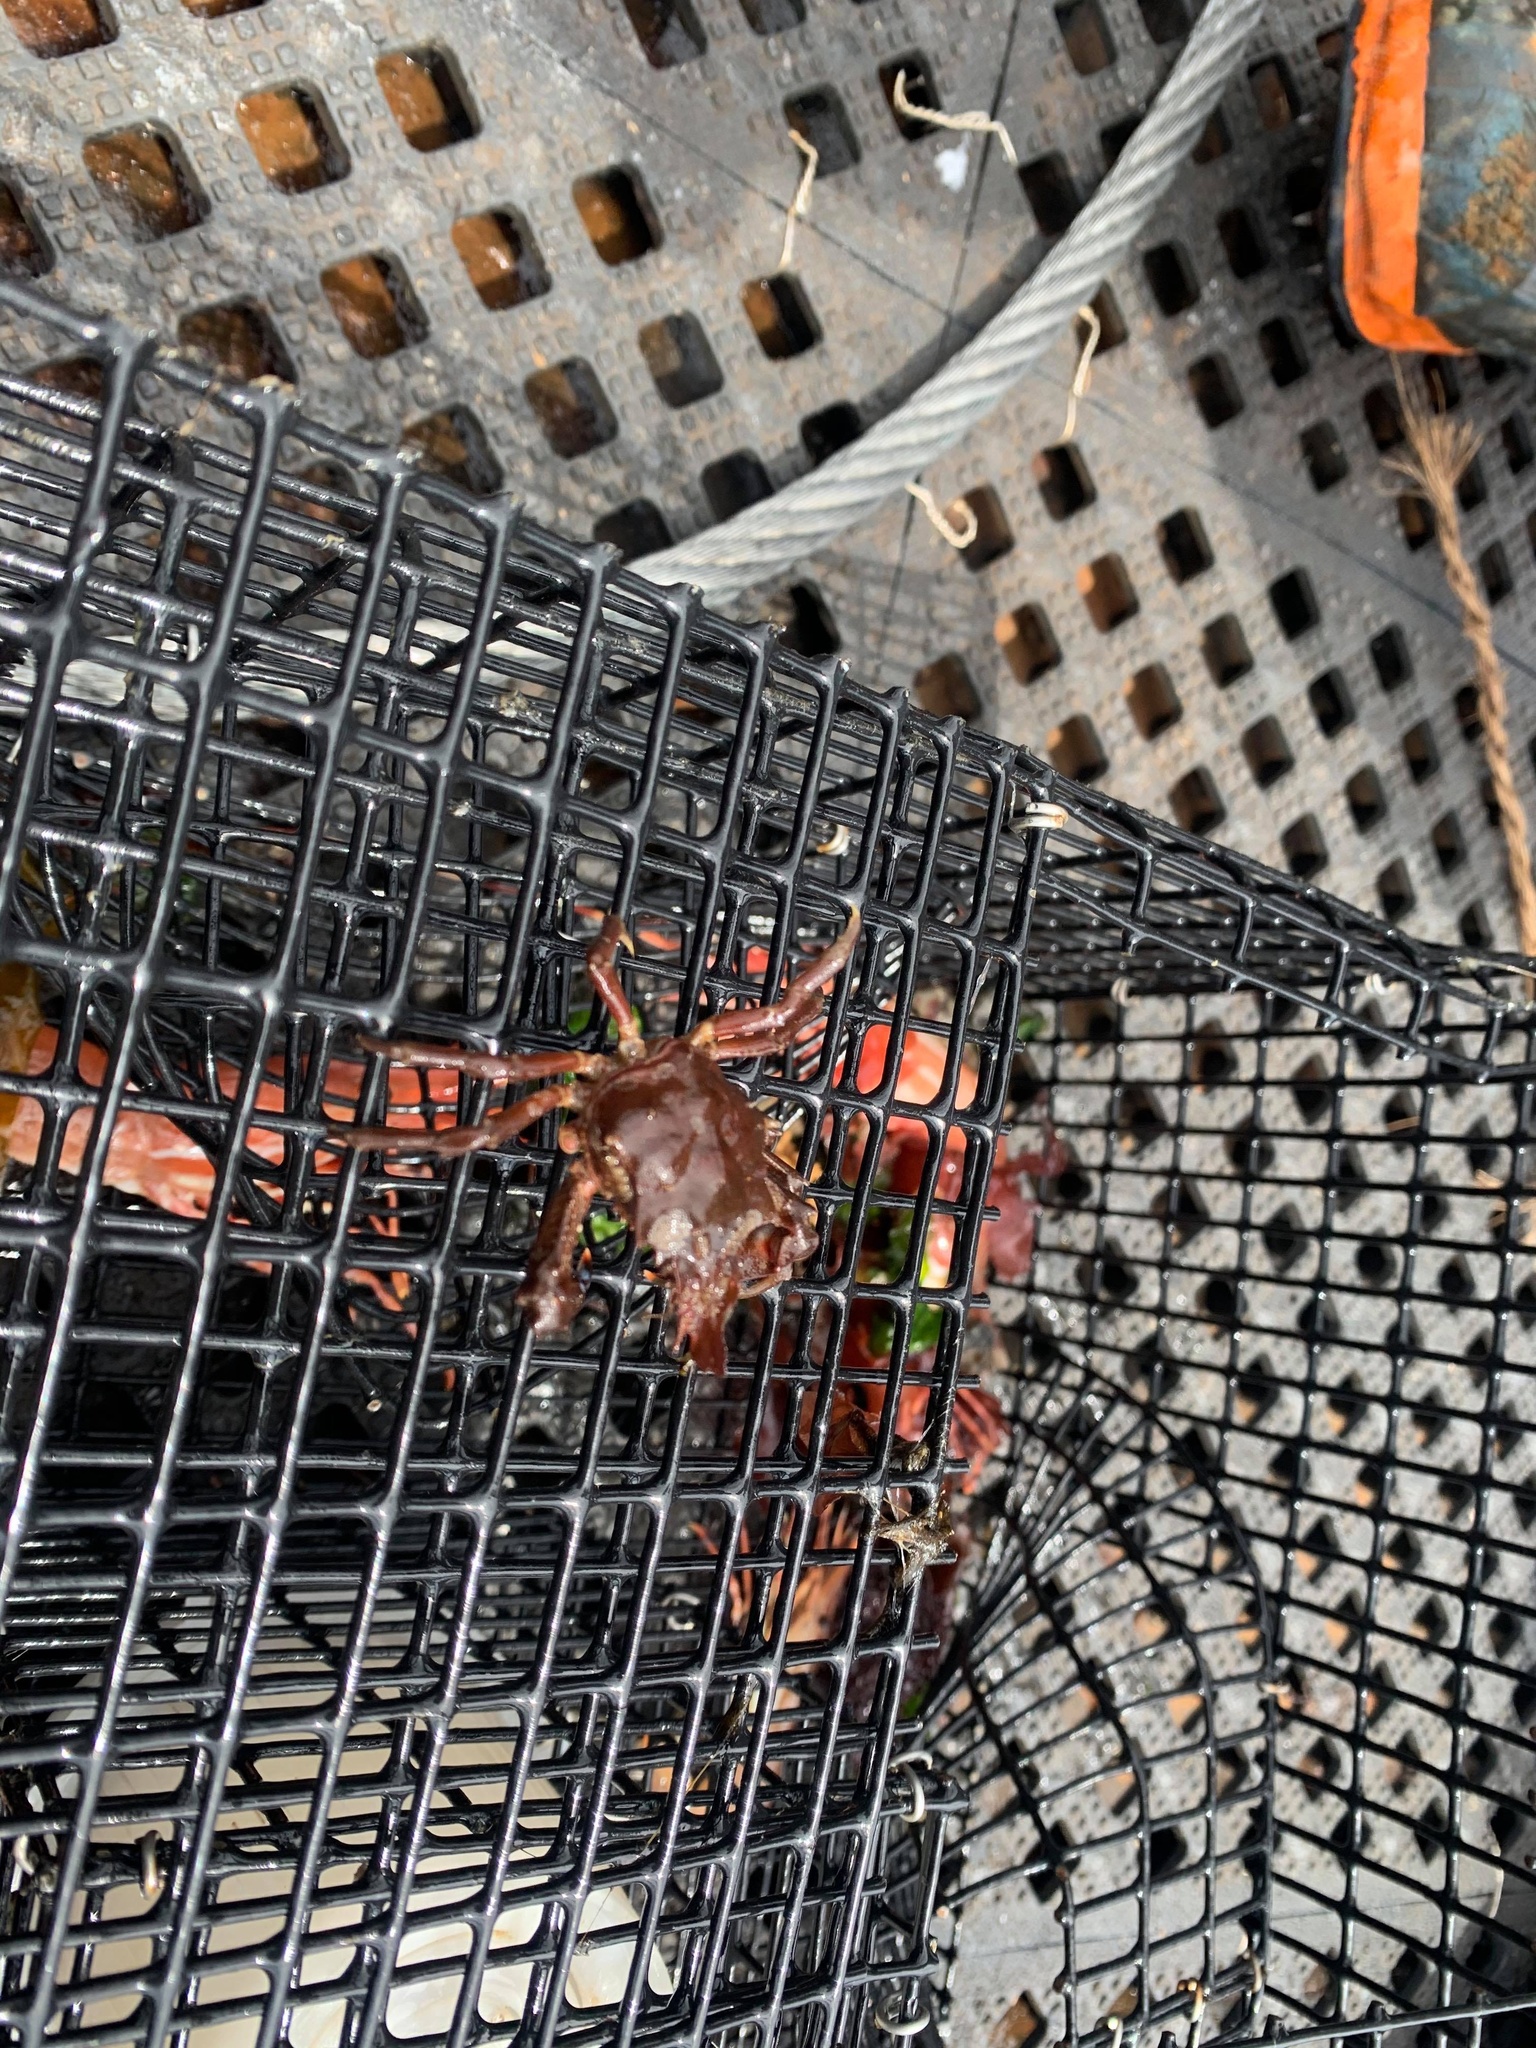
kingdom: Animalia
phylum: Arthropoda
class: Malacostraca
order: Decapoda
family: Epialtidae
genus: Pugettia
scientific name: Pugettia gracilis
